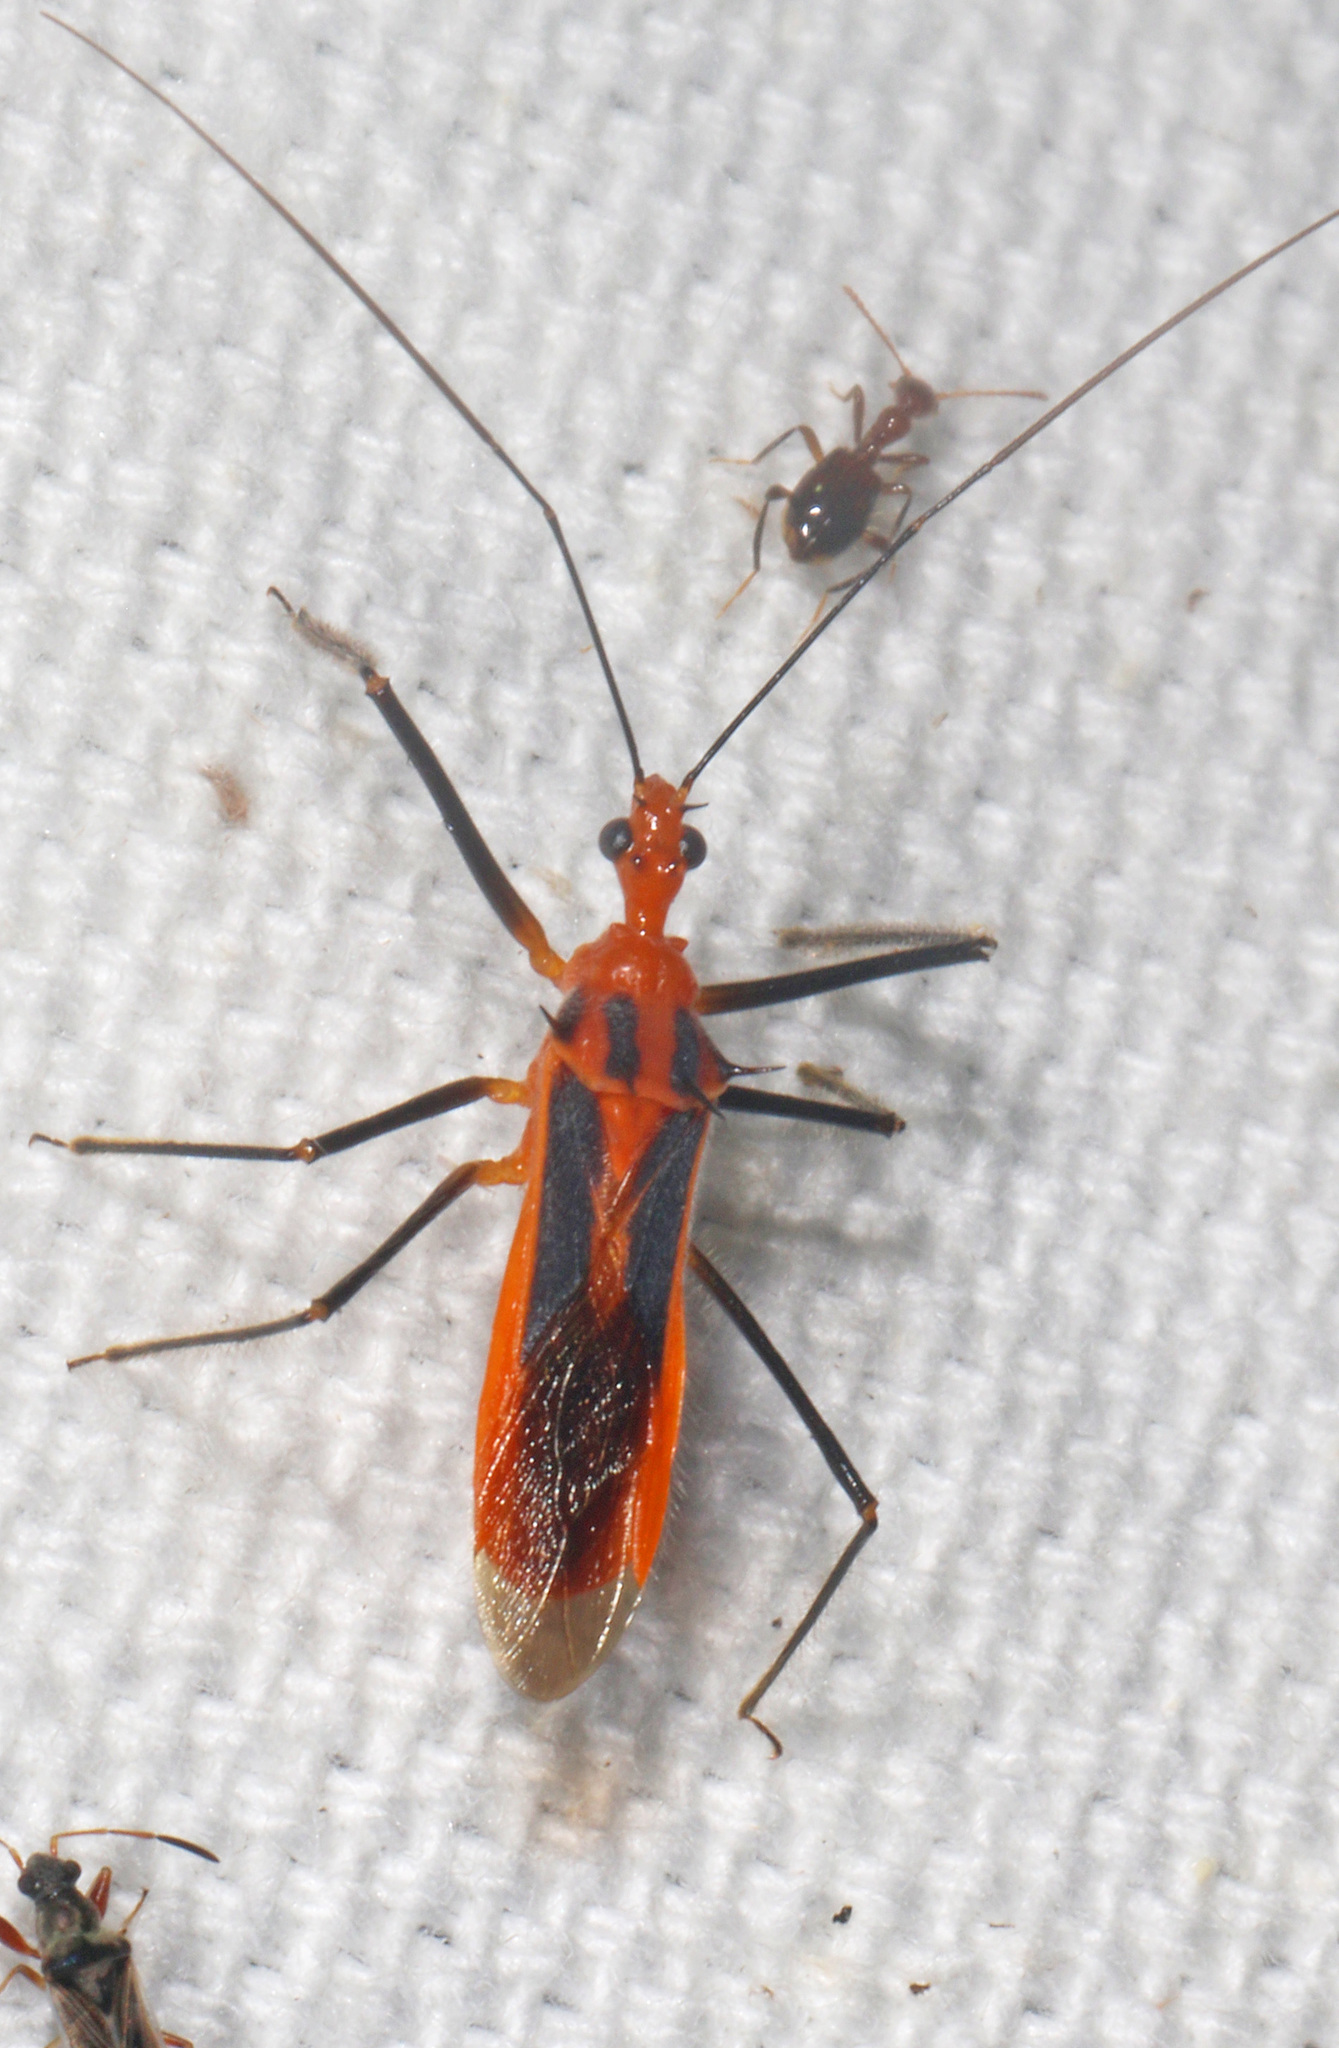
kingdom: Animalia
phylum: Arthropoda
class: Insecta
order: Hemiptera
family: Reduviidae
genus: Repipta
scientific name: Repipta taurus
